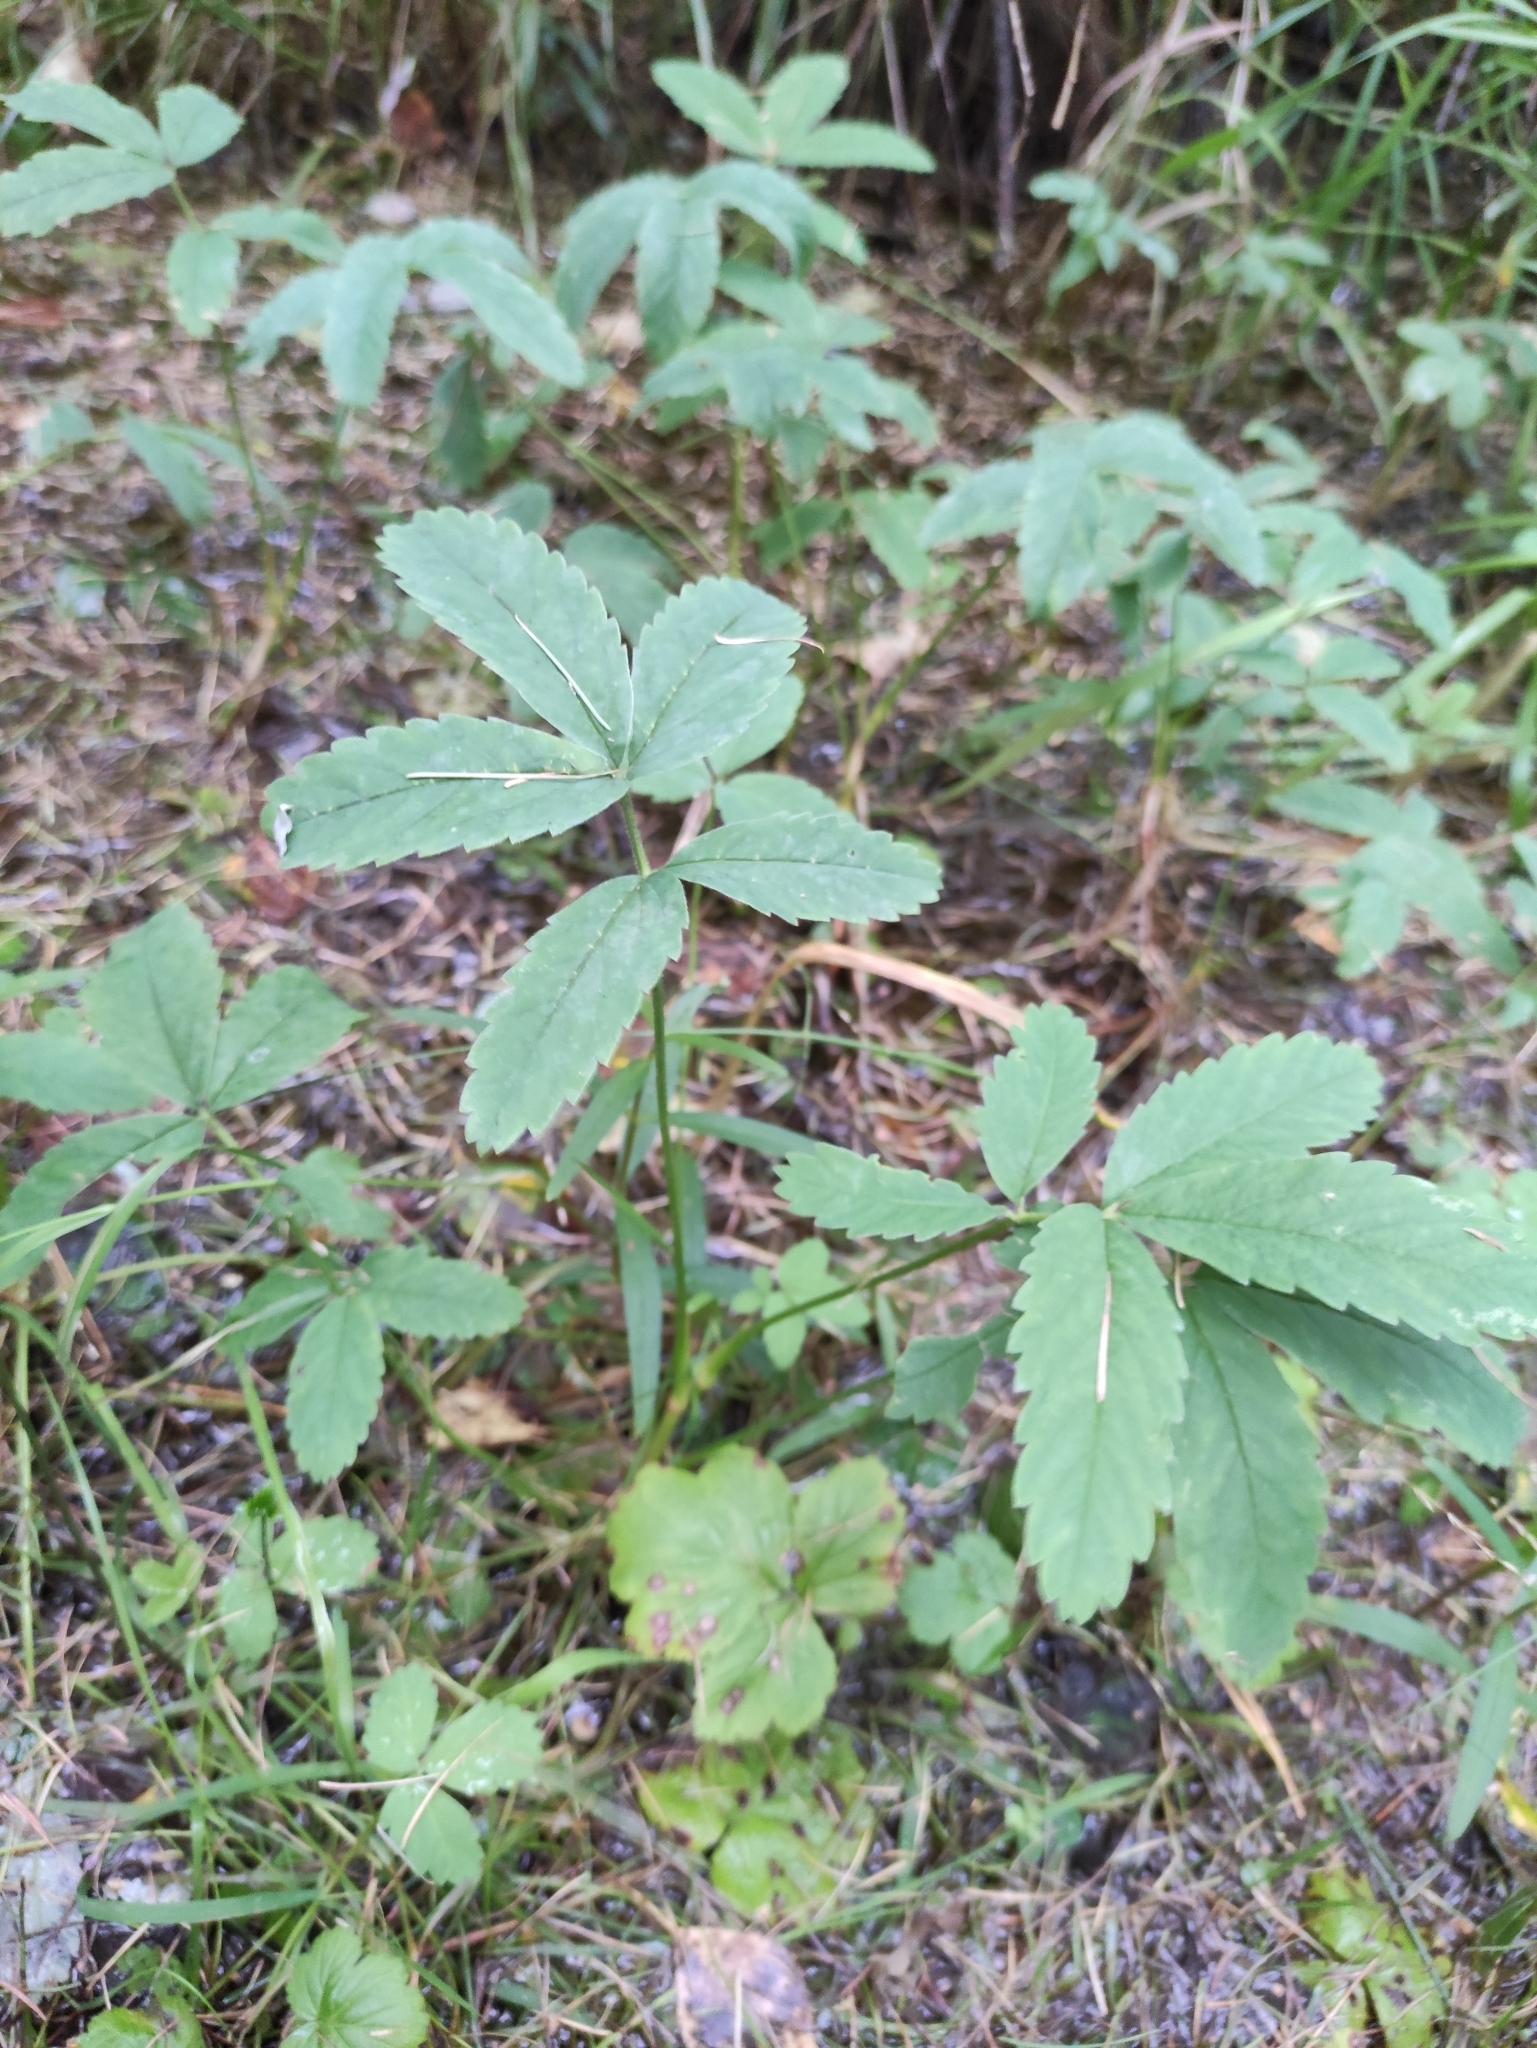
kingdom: Plantae
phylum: Tracheophyta
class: Magnoliopsida
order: Rosales
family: Rosaceae
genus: Comarum
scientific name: Comarum palustre
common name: Marsh cinquefoil
